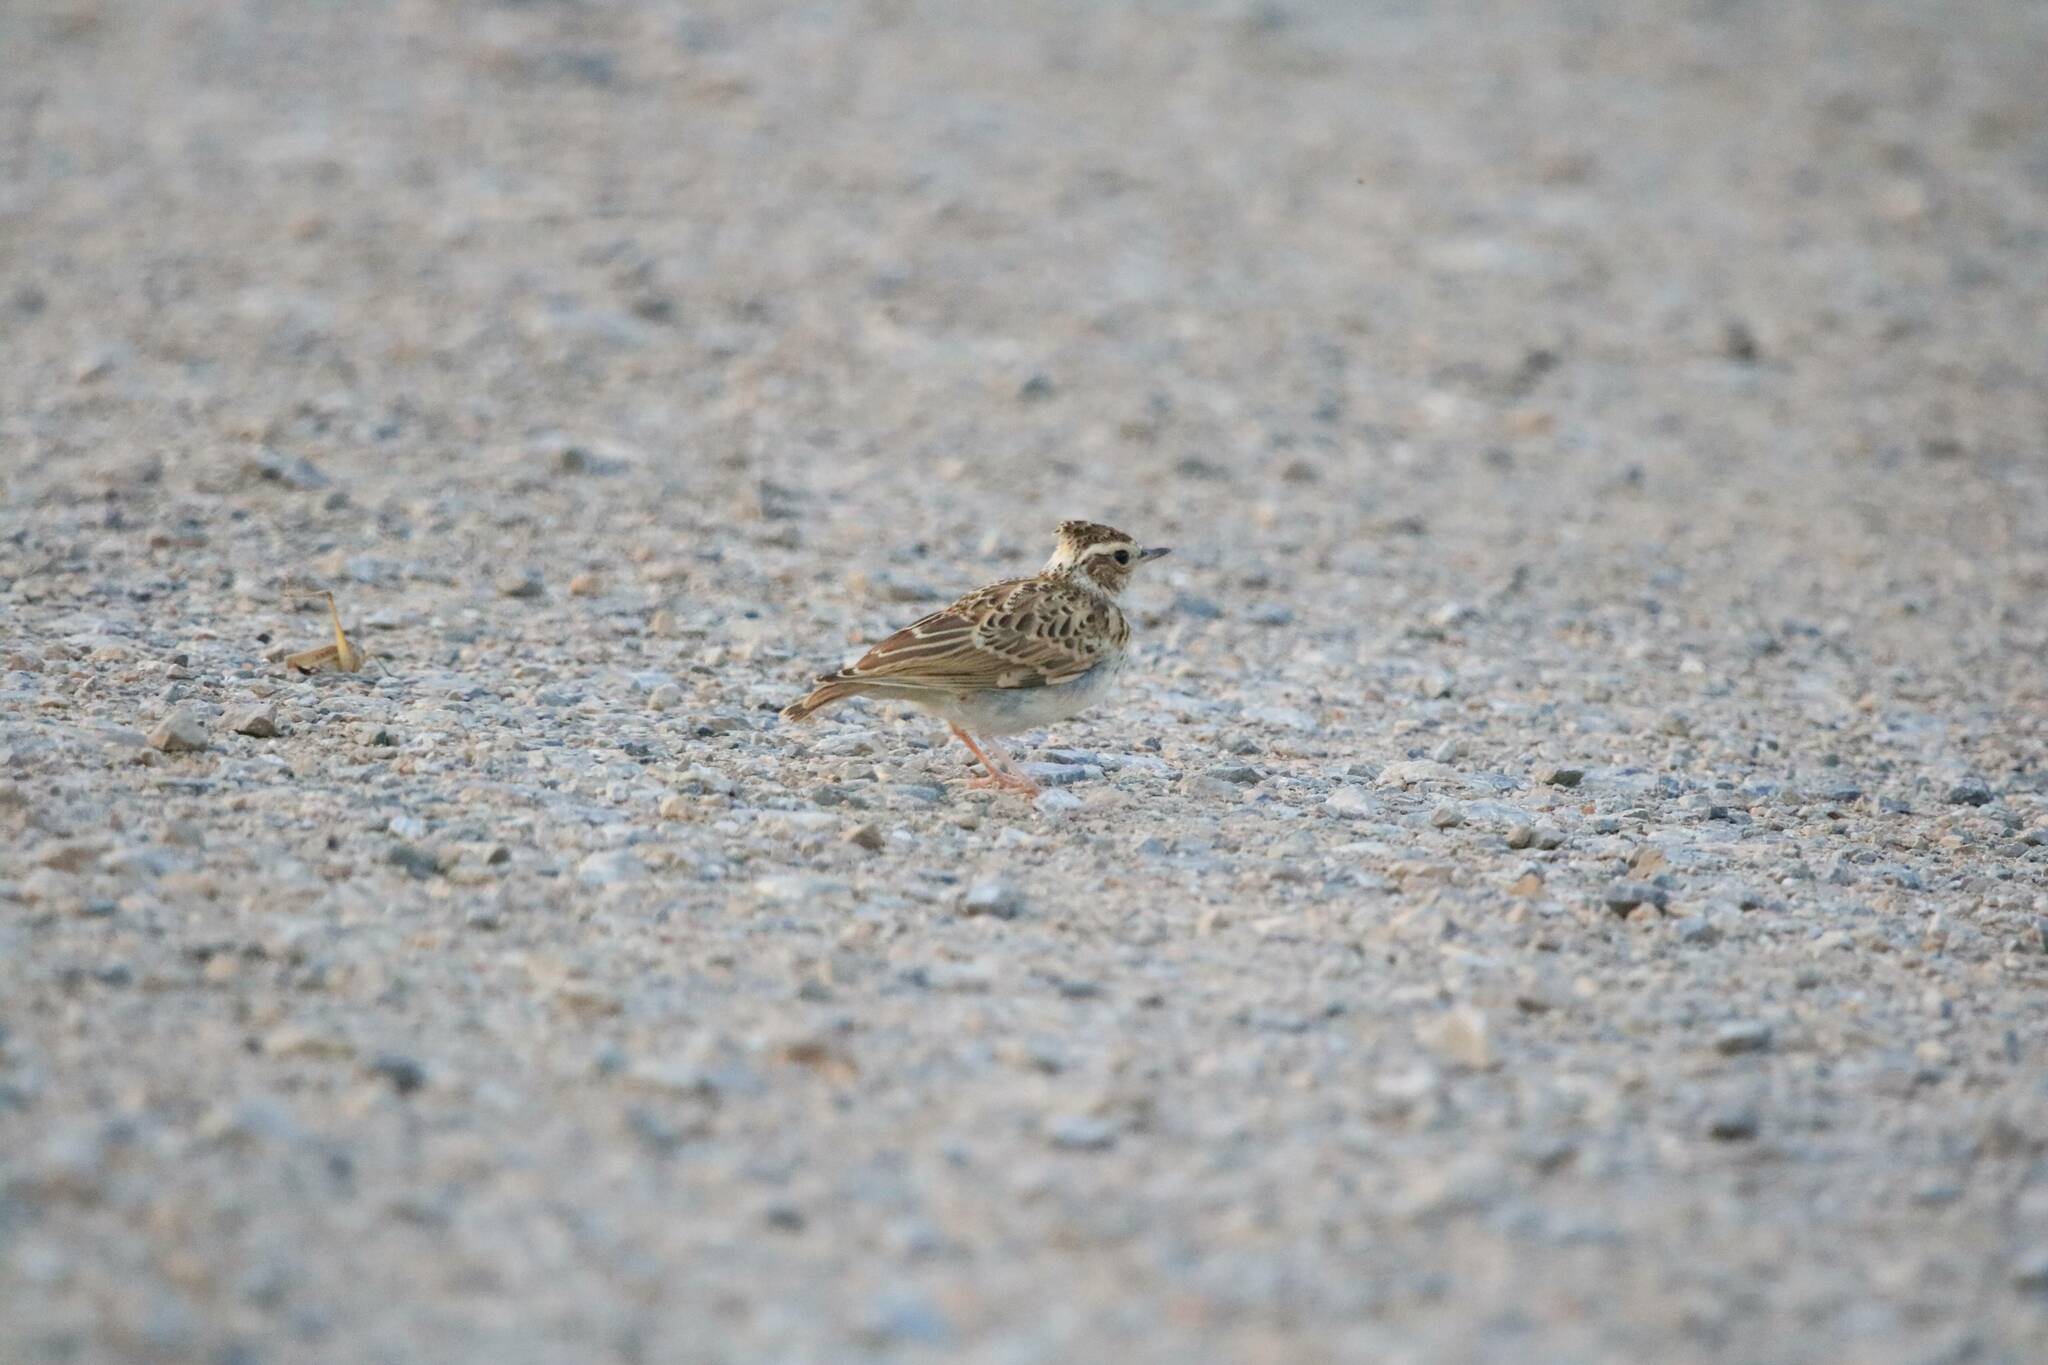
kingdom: Animalia
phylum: Chordata
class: Aves
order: Passeriformes
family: Alaudidae
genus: Lullula
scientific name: Lullula arborea
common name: Woodlark
